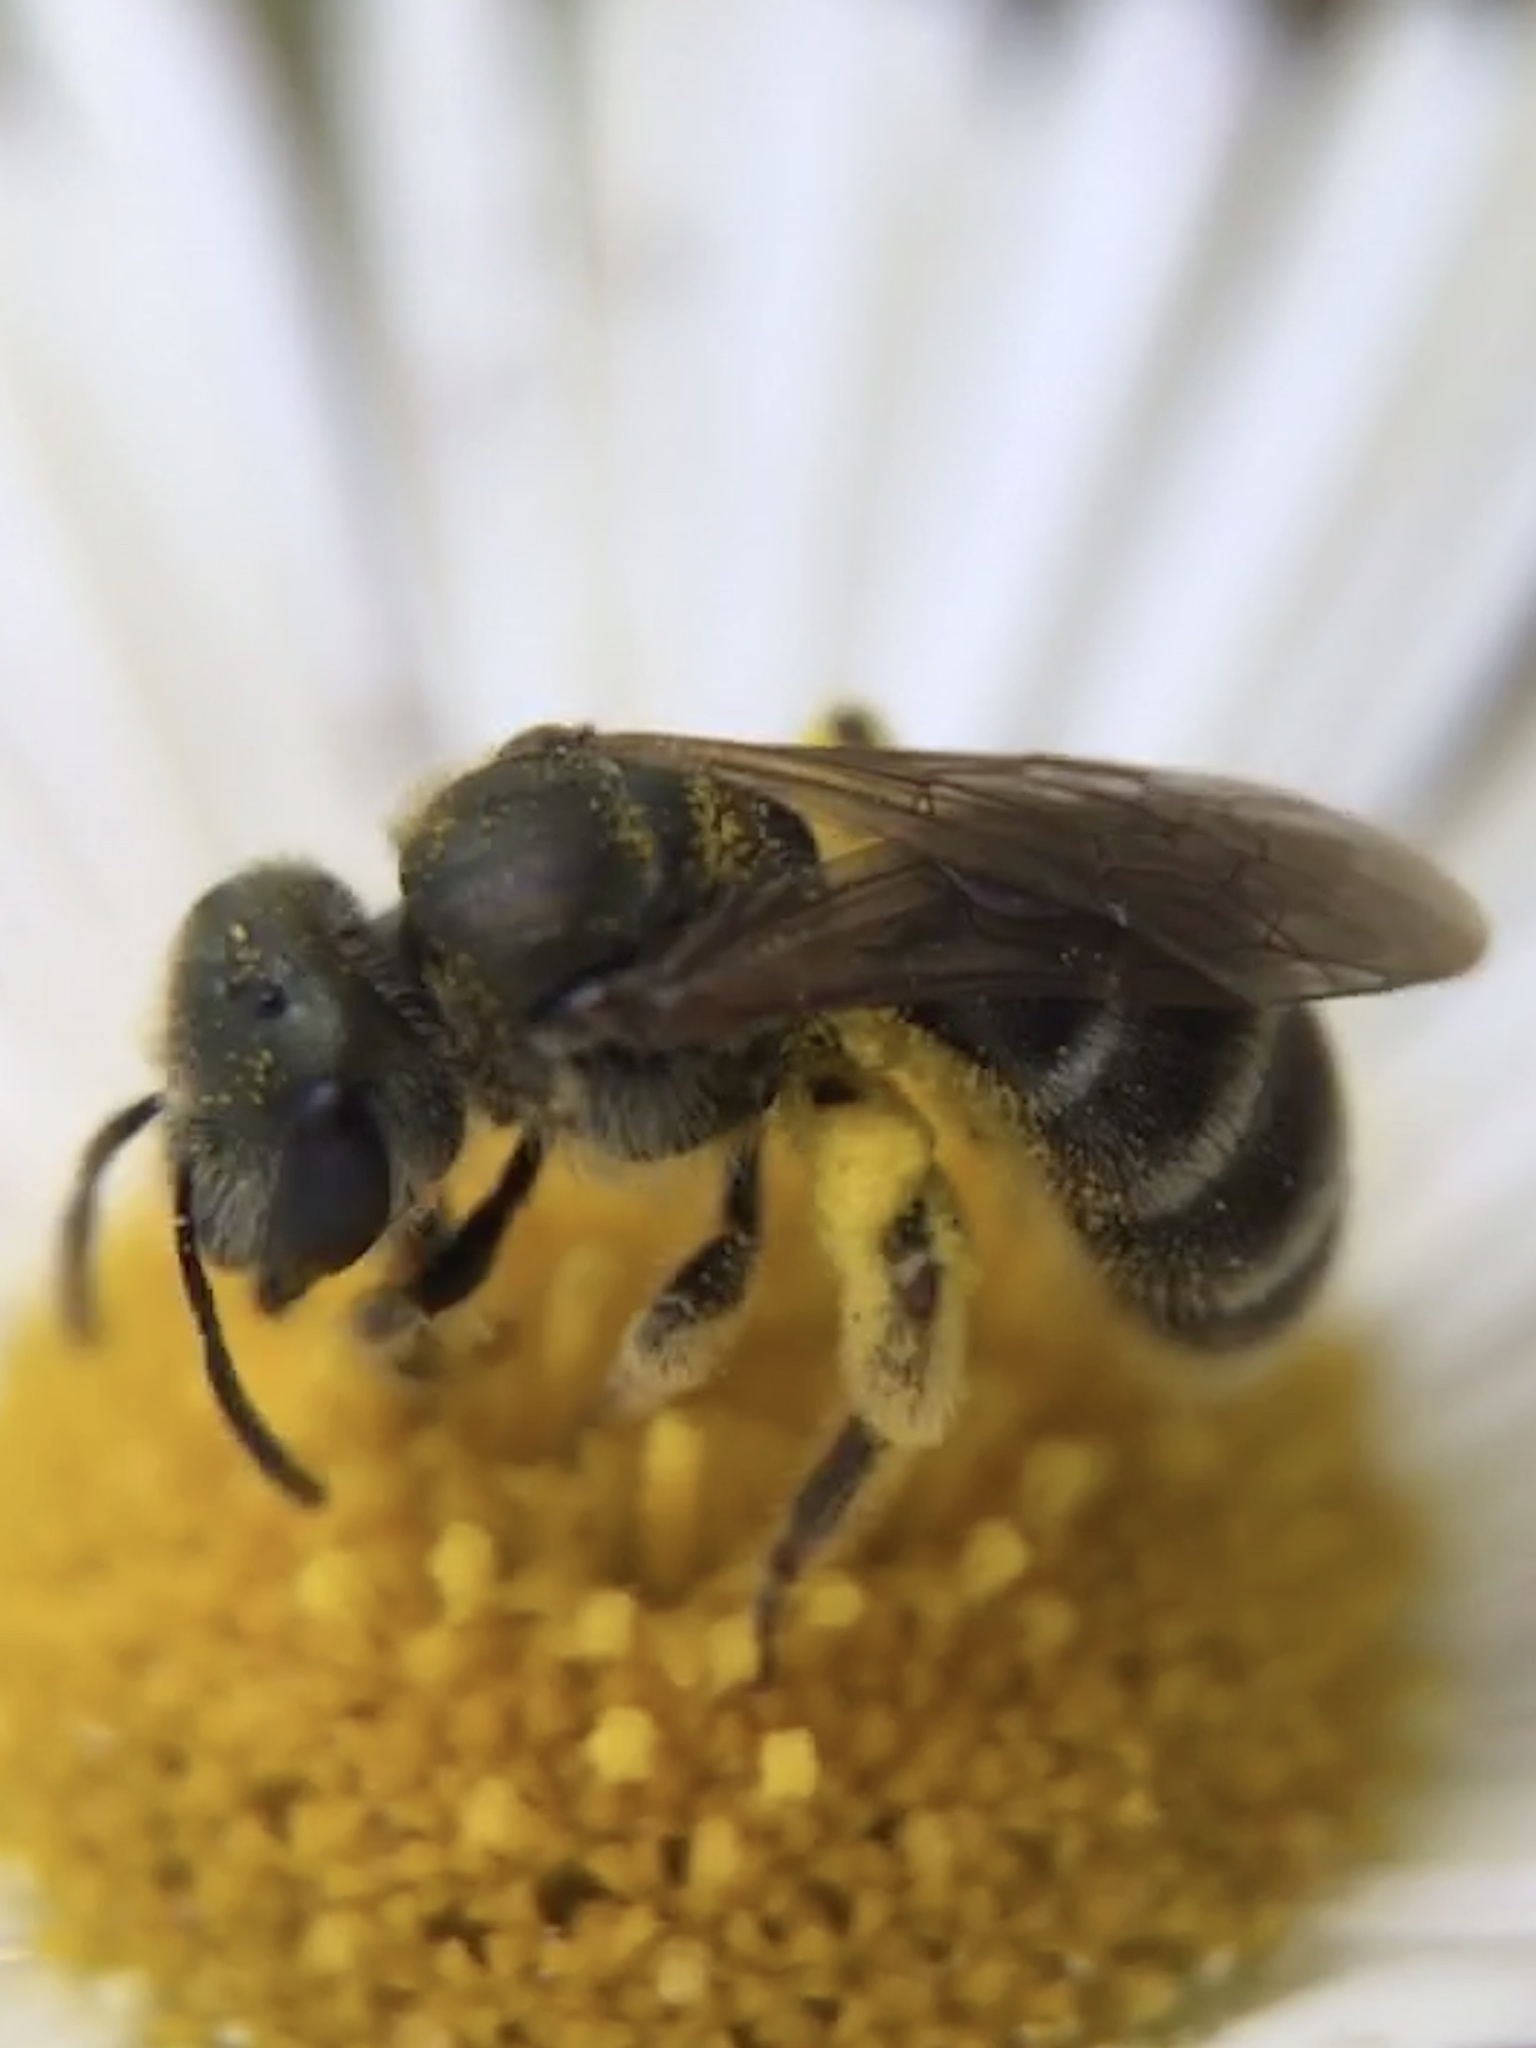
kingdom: Animalia
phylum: Arthropoda
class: Insecta
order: Hymenoptera
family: Halictidae
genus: Halictus
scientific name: Halictus tripartitus
